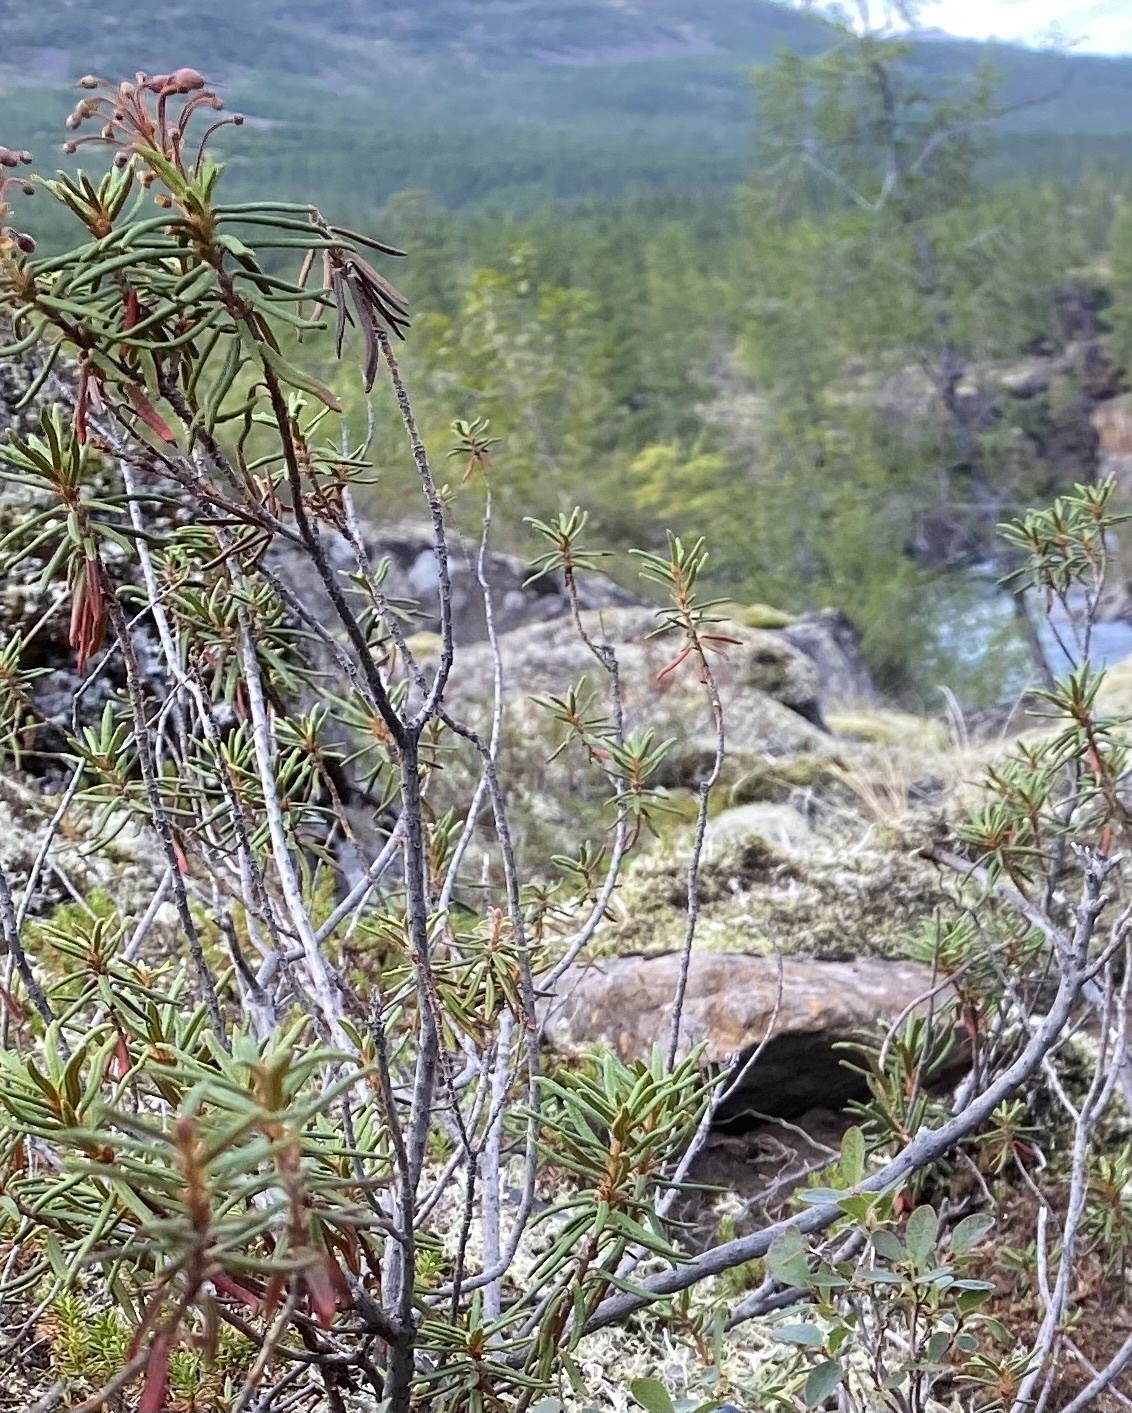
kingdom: Plantae
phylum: Tracheophyta
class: Magnoliopsida
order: Ericales
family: Ericaceae
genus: Rhododendron
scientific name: Rhododendron tomentosum
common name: Marsh labrador tea
